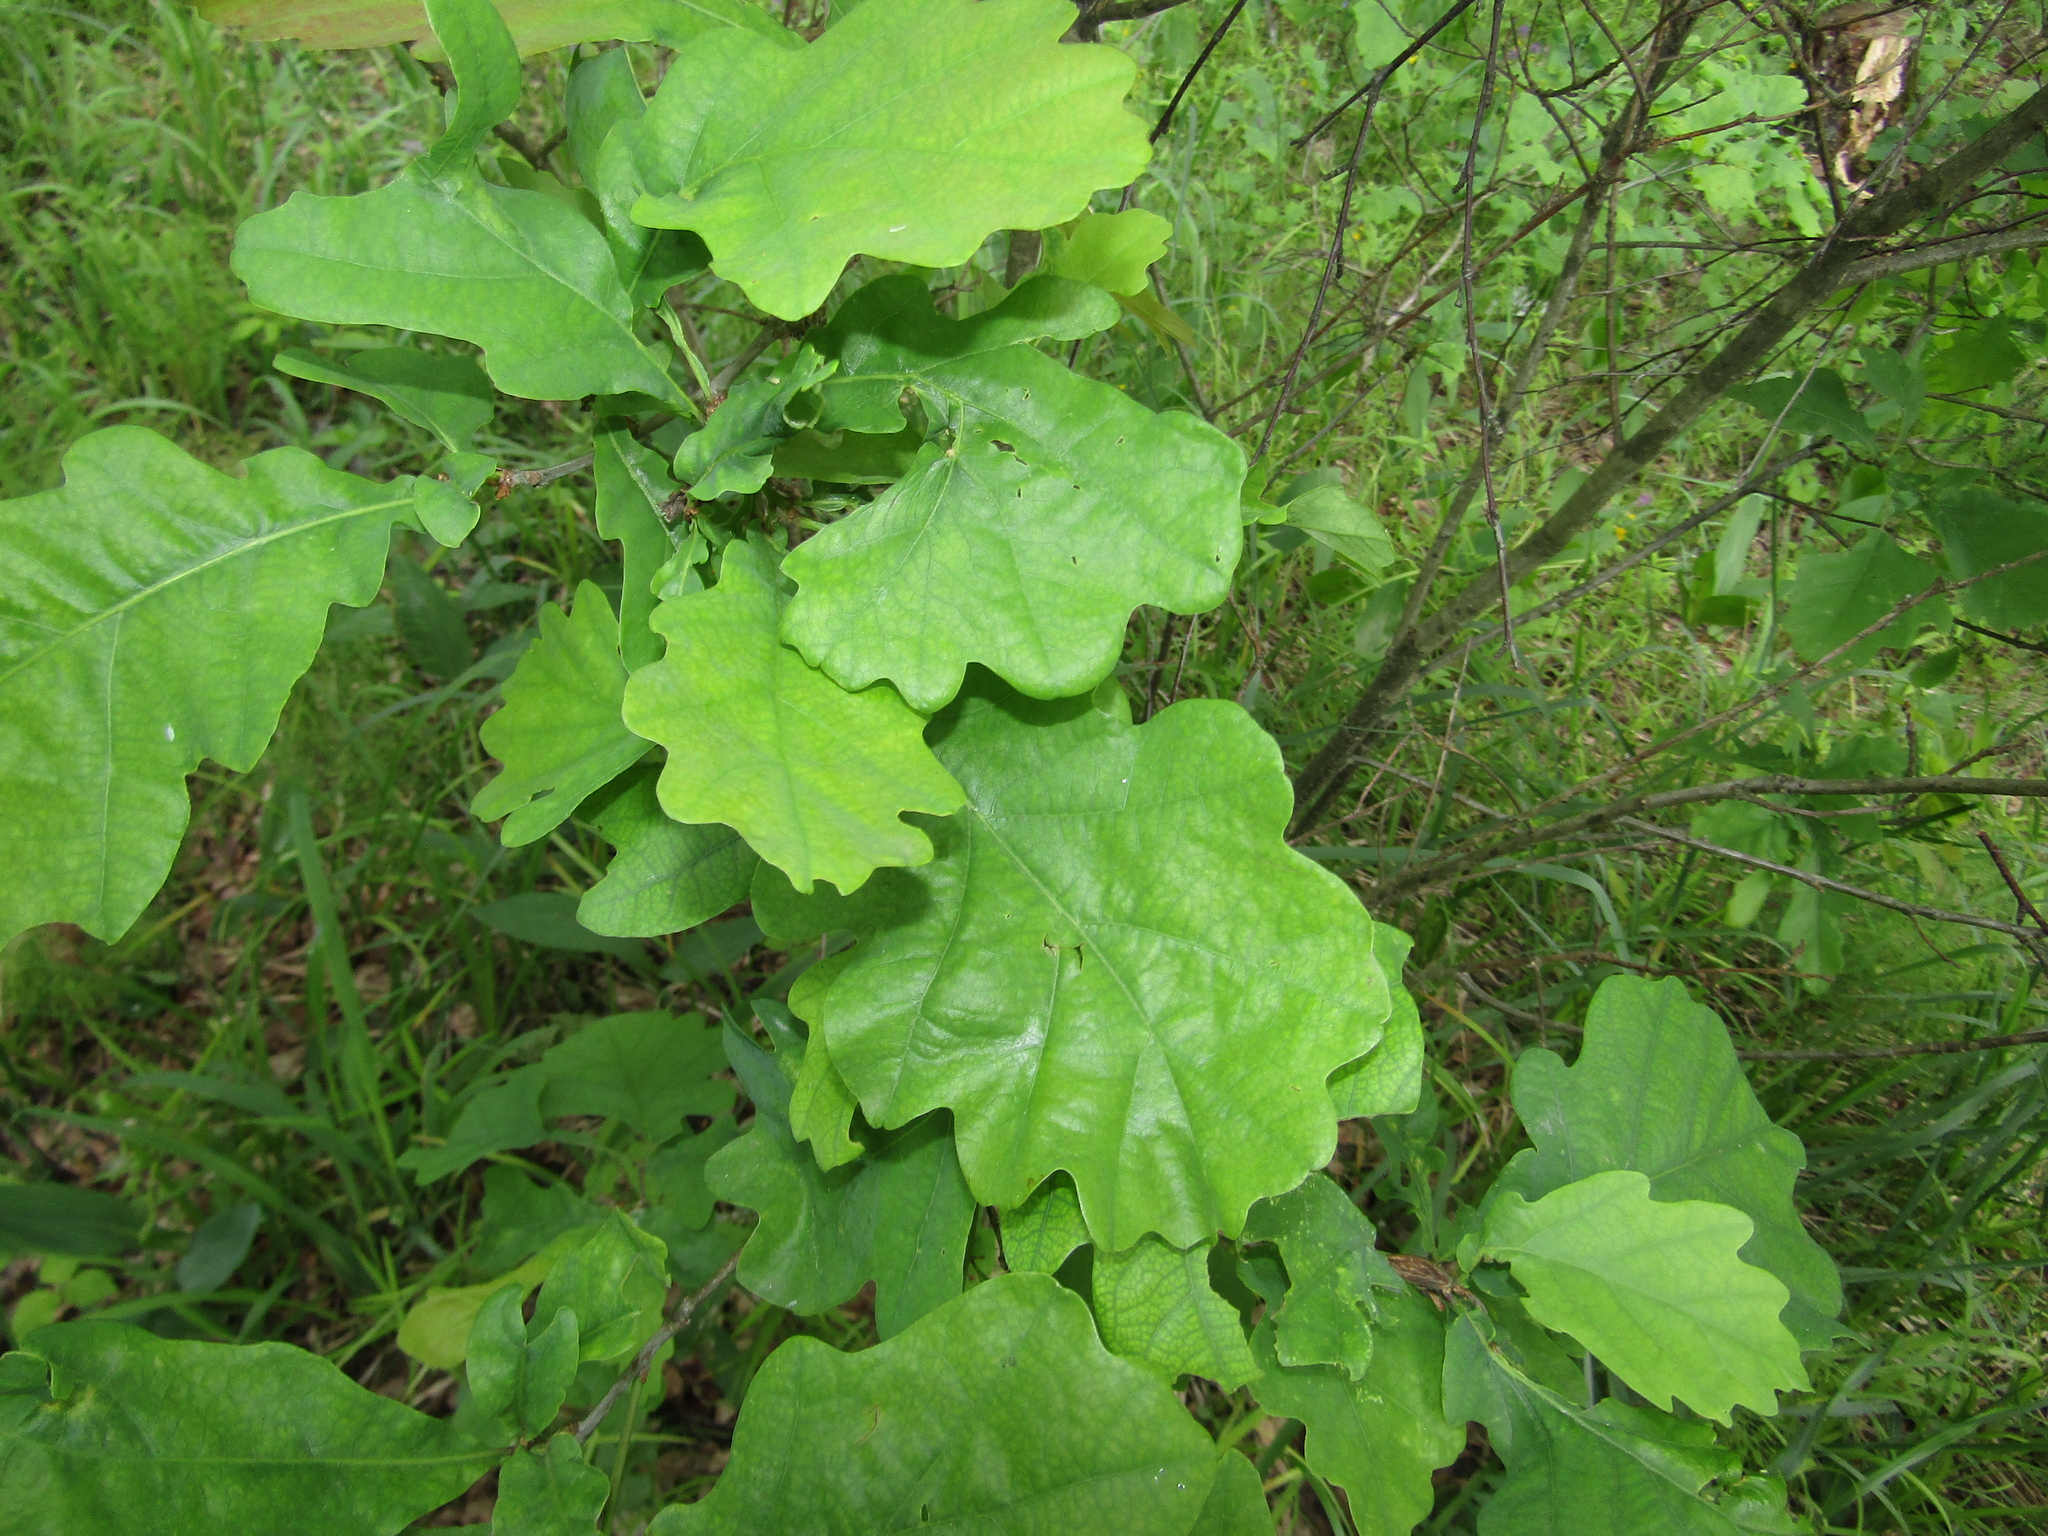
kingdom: Plantae
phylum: Tracheophyta
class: Magnoliopsida
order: Fagales
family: Fagaceae
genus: Quercus
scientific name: Quercus robur
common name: Pedunculate oak
